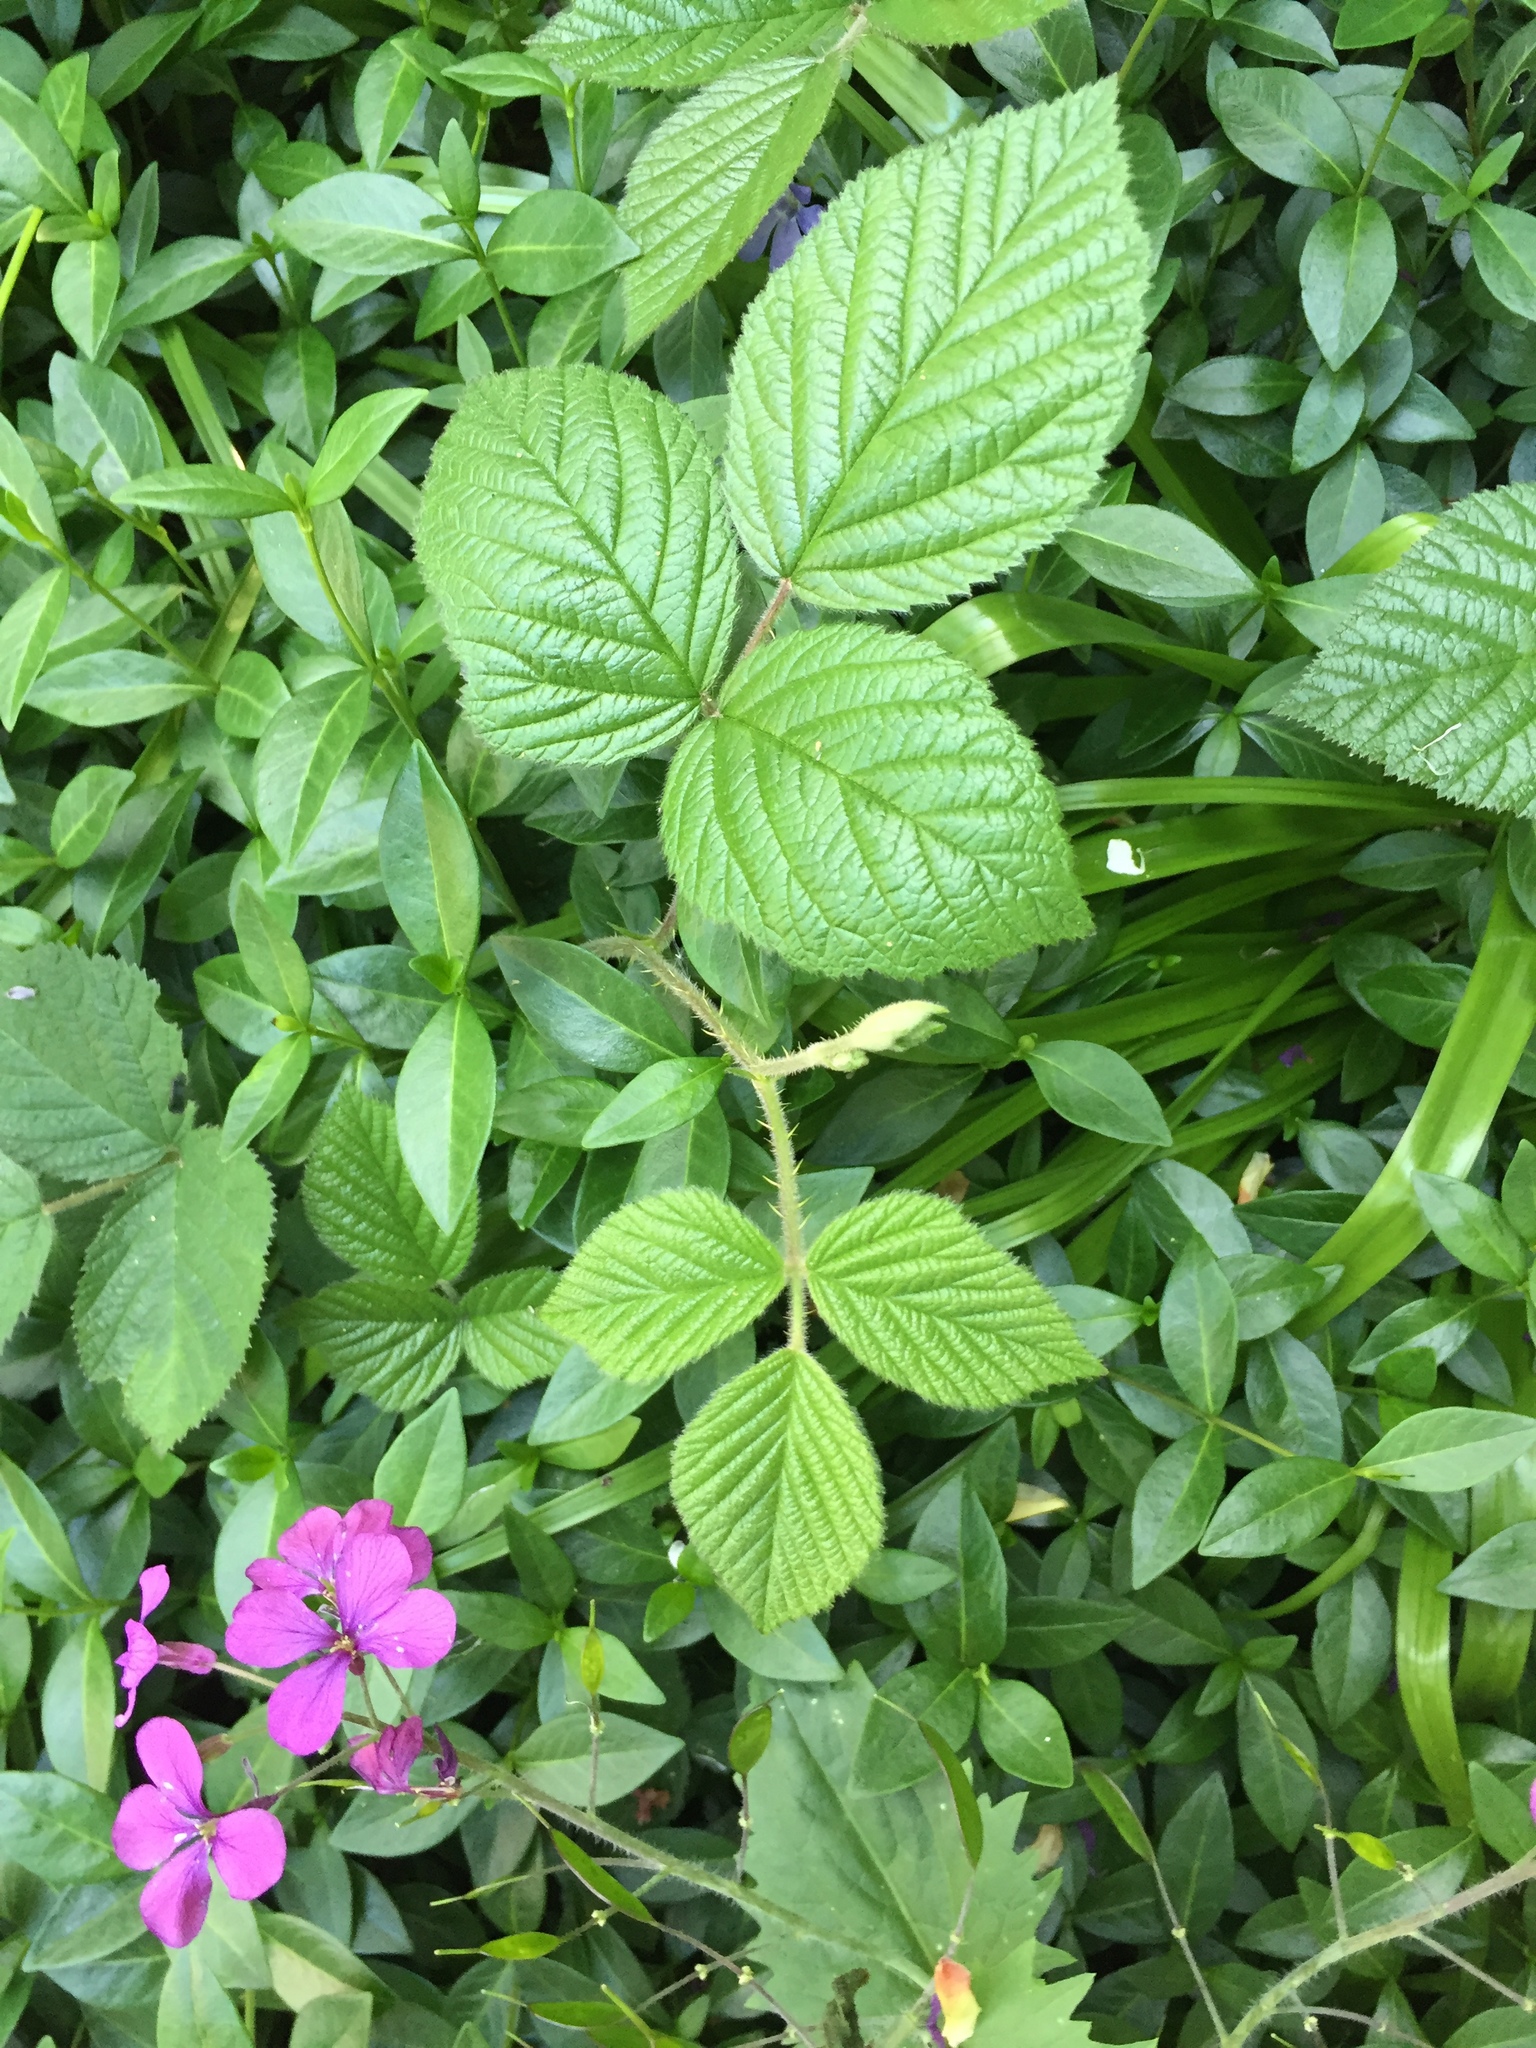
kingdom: Plantae
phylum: Tracheophyta
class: Magnoliopsida
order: Rosales
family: Rosaceae
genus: Rubus
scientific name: Rubus
